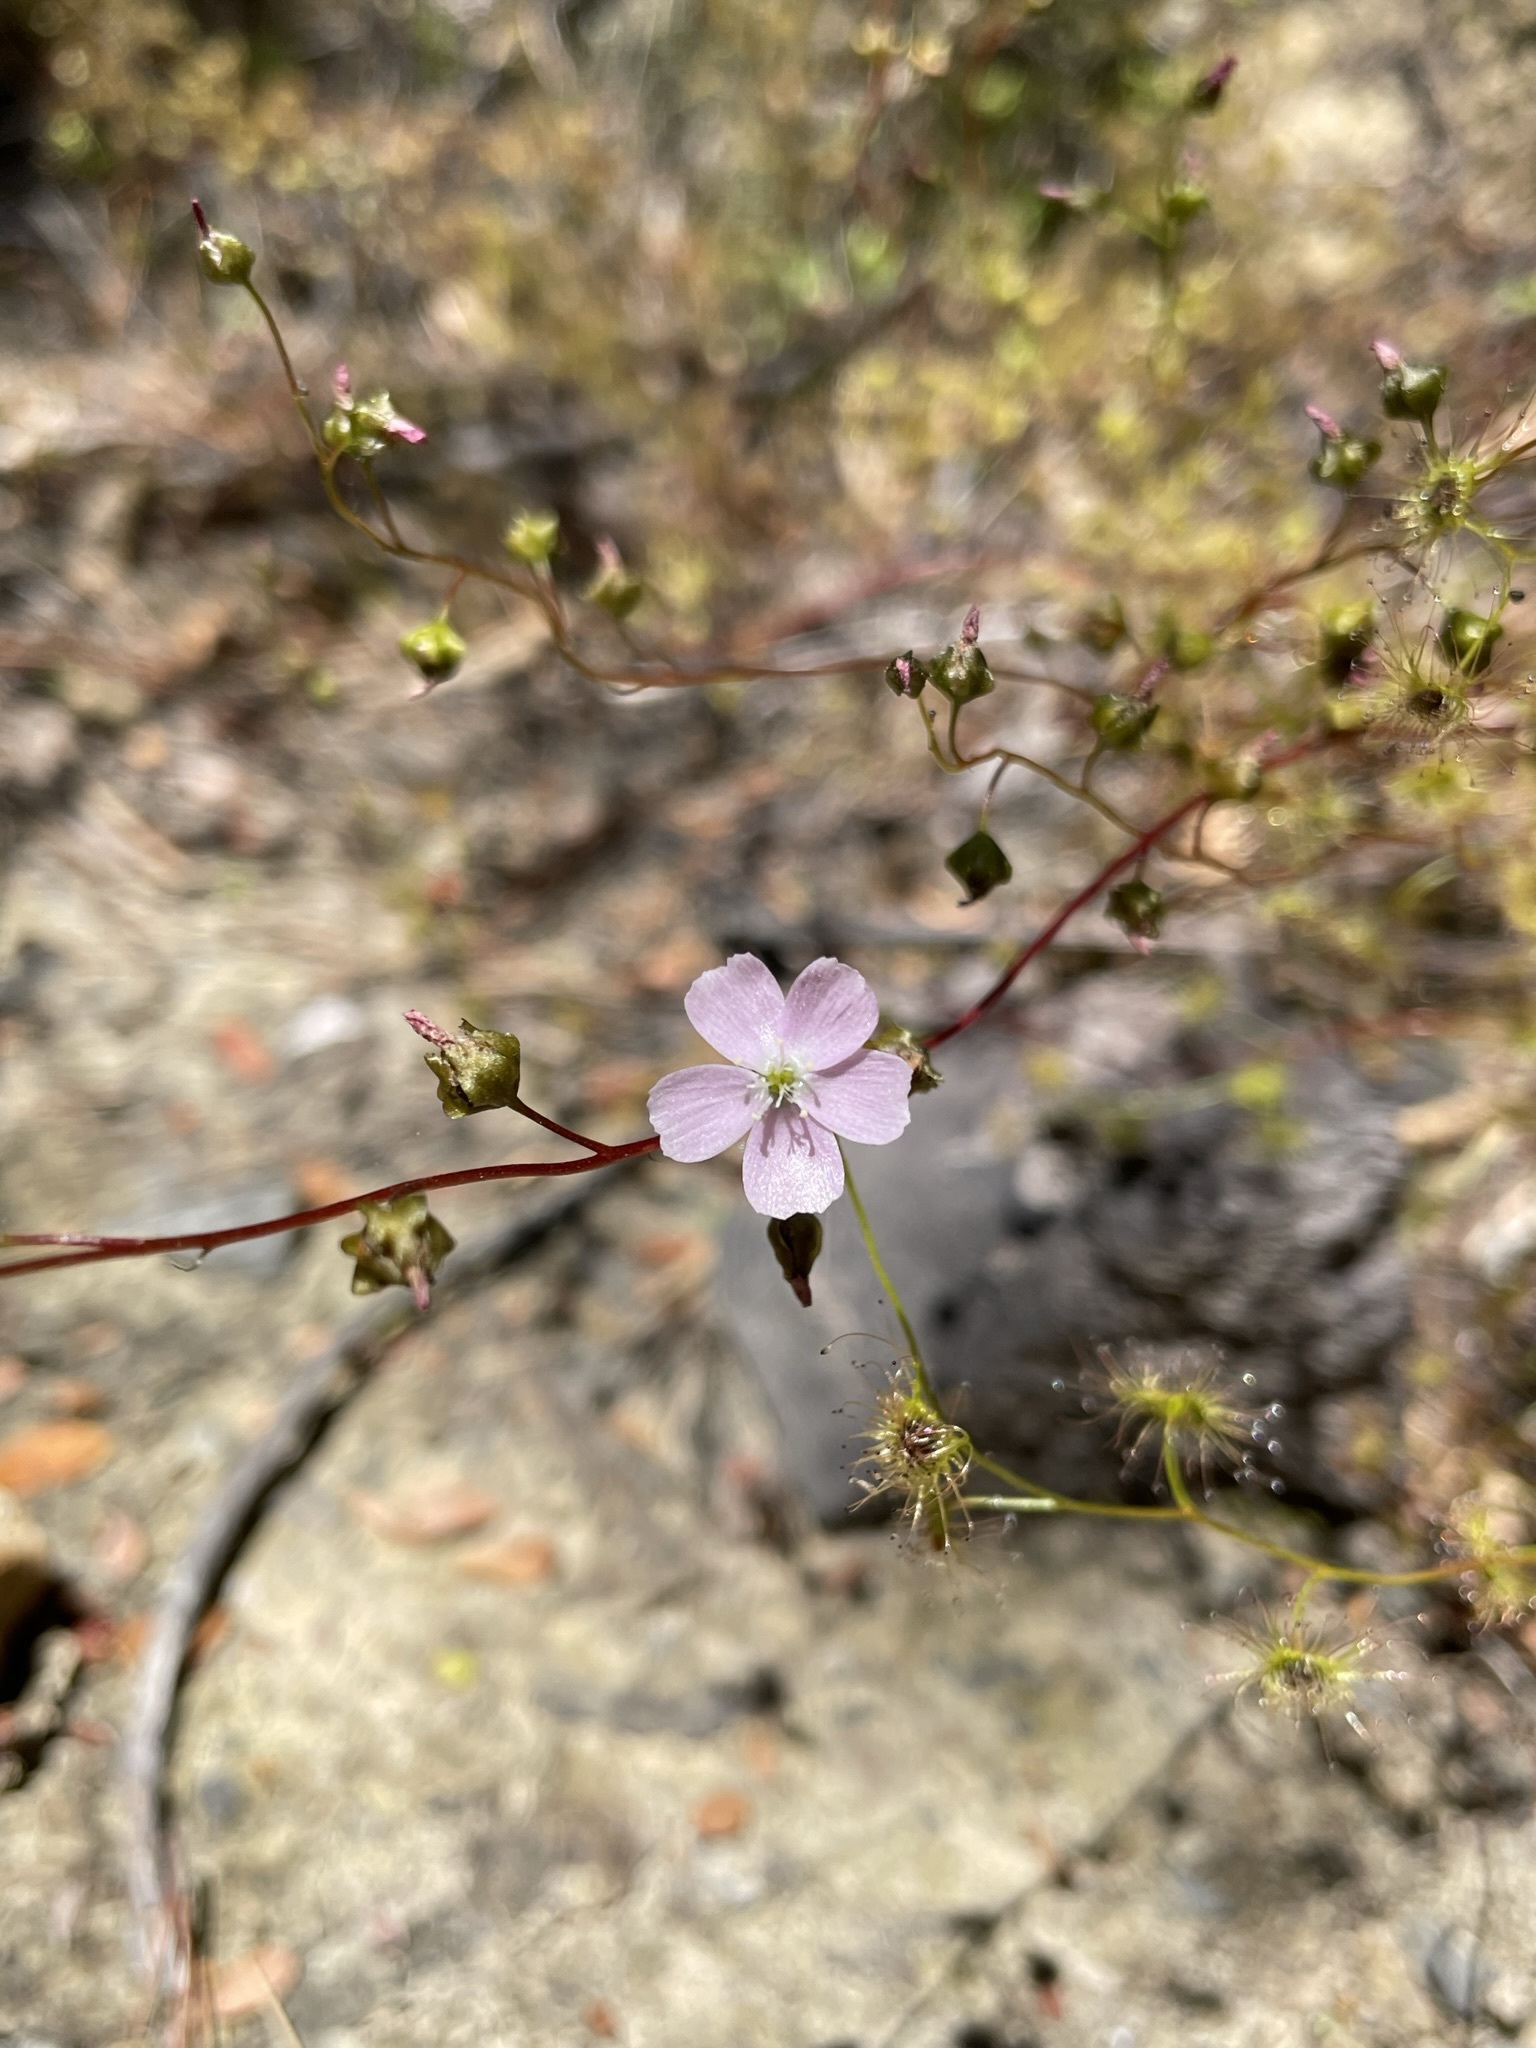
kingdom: Plantae
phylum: Tracheophyta
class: Magnoliopsida
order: Caryophyllales
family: Droseraceae
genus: Drosera
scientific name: Drosera peltata
